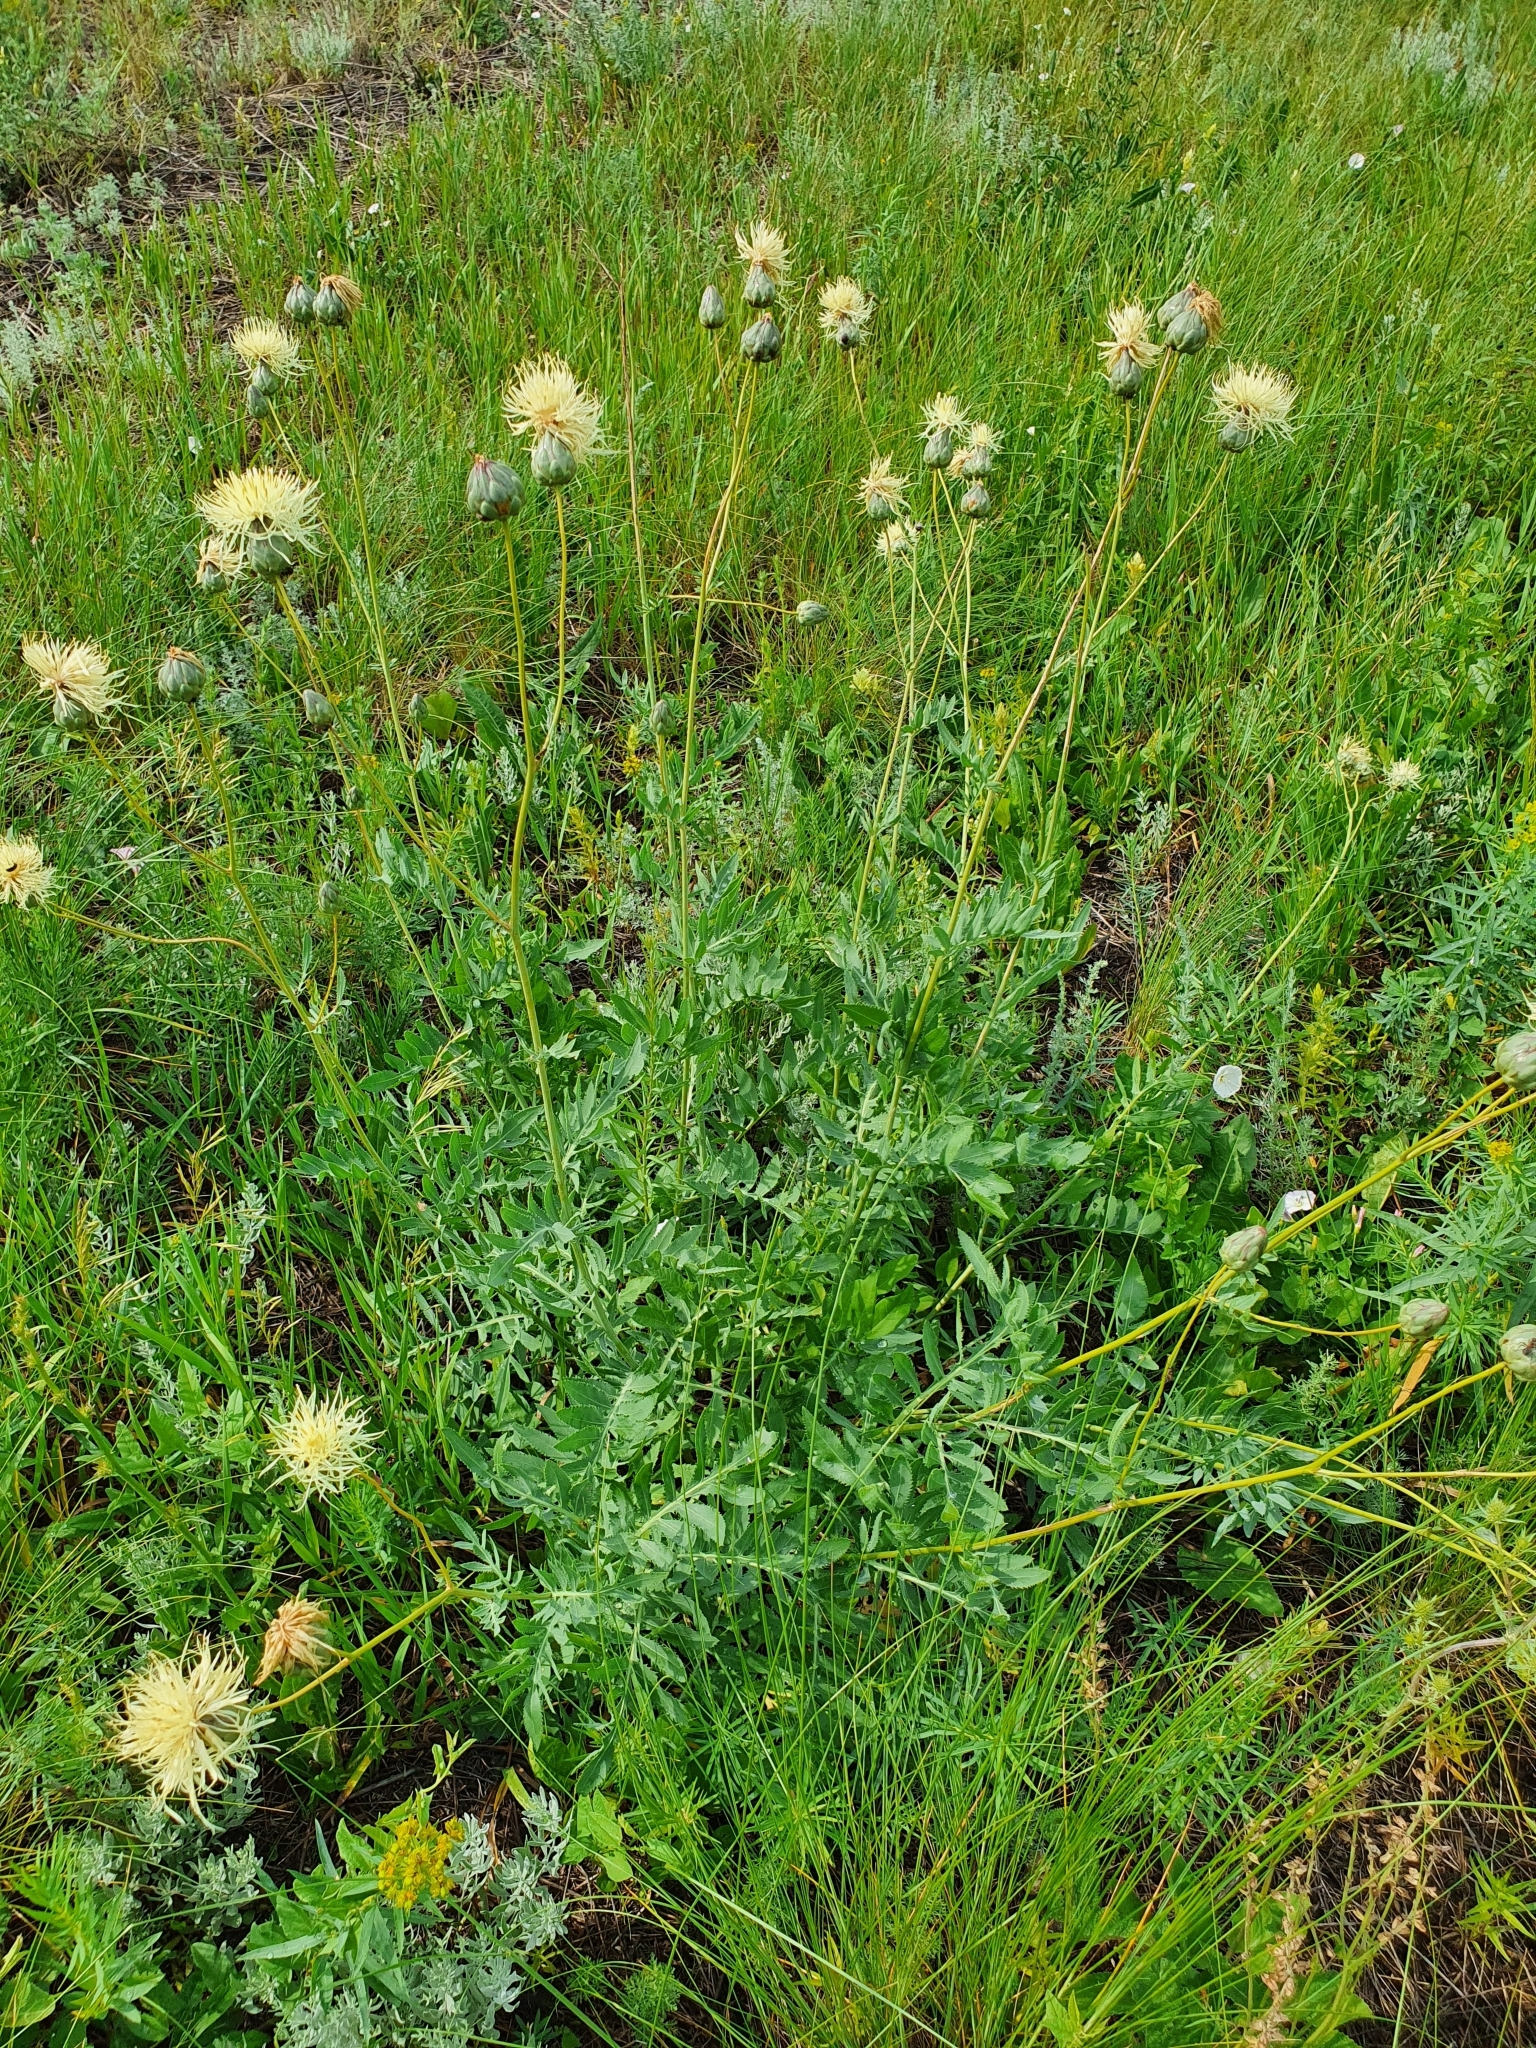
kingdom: Plantae
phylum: Tracheophyta
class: Magnoliopsida
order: Asterales
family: Asteraceae
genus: Rhaponticoides
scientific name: Rhaponticoides ruthenica
